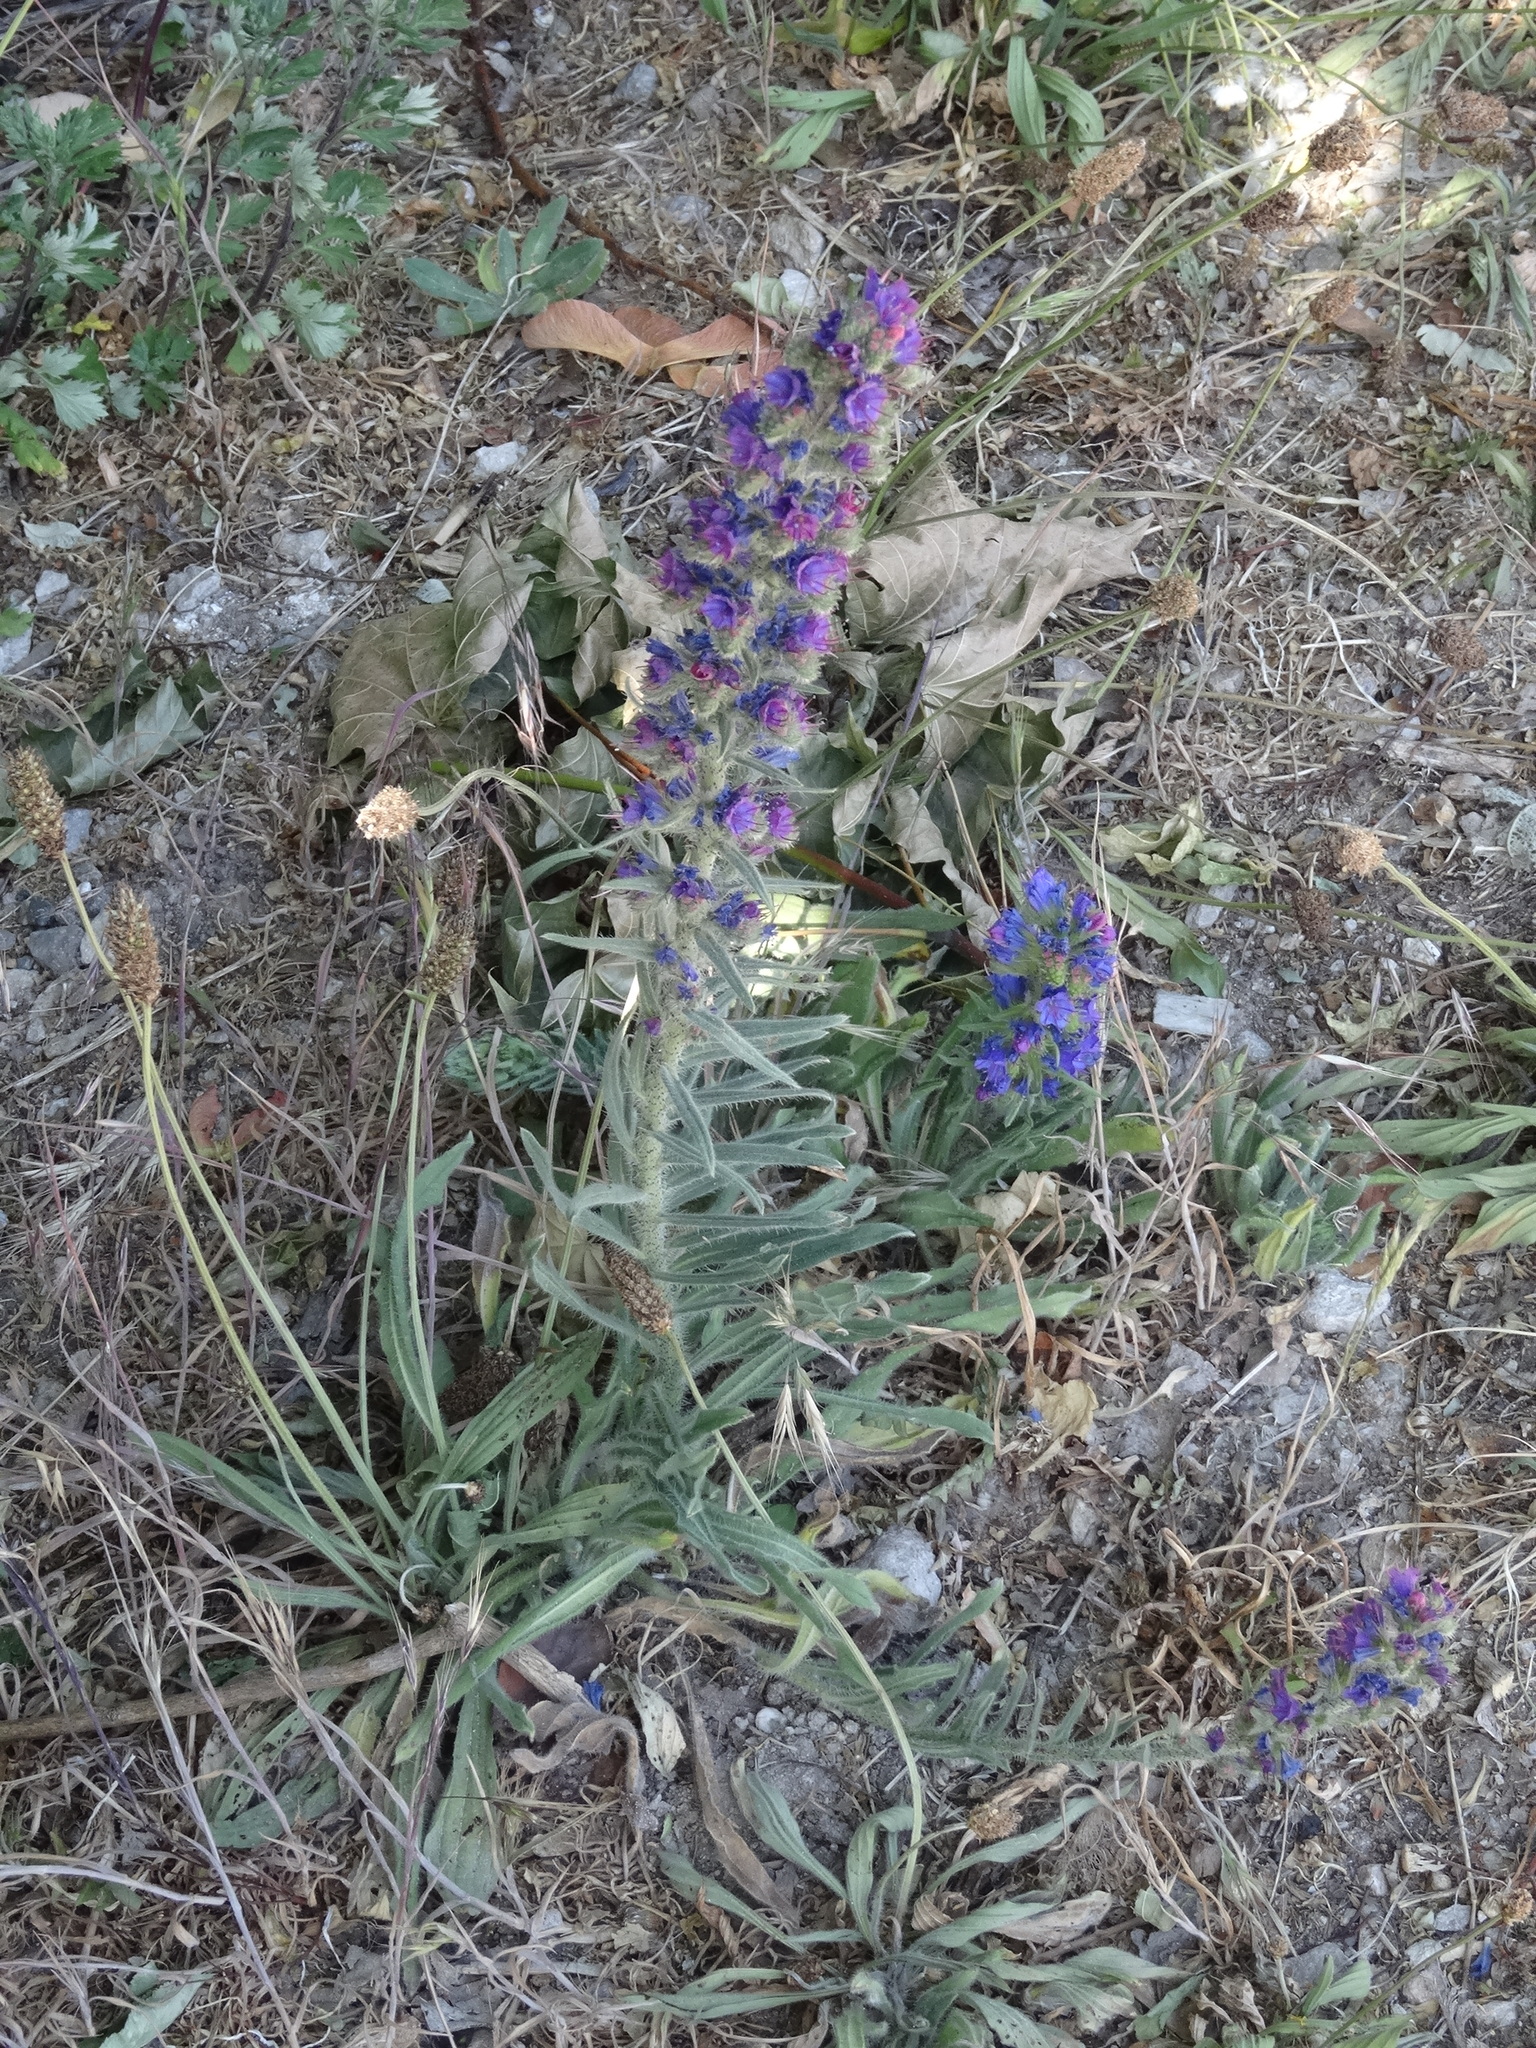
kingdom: Plantae
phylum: Tracheophyta
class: Magnoliopsida
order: Boraginales
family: Boraginaceae
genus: Echium
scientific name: Echium vulgare
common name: Common viper's bugloss
